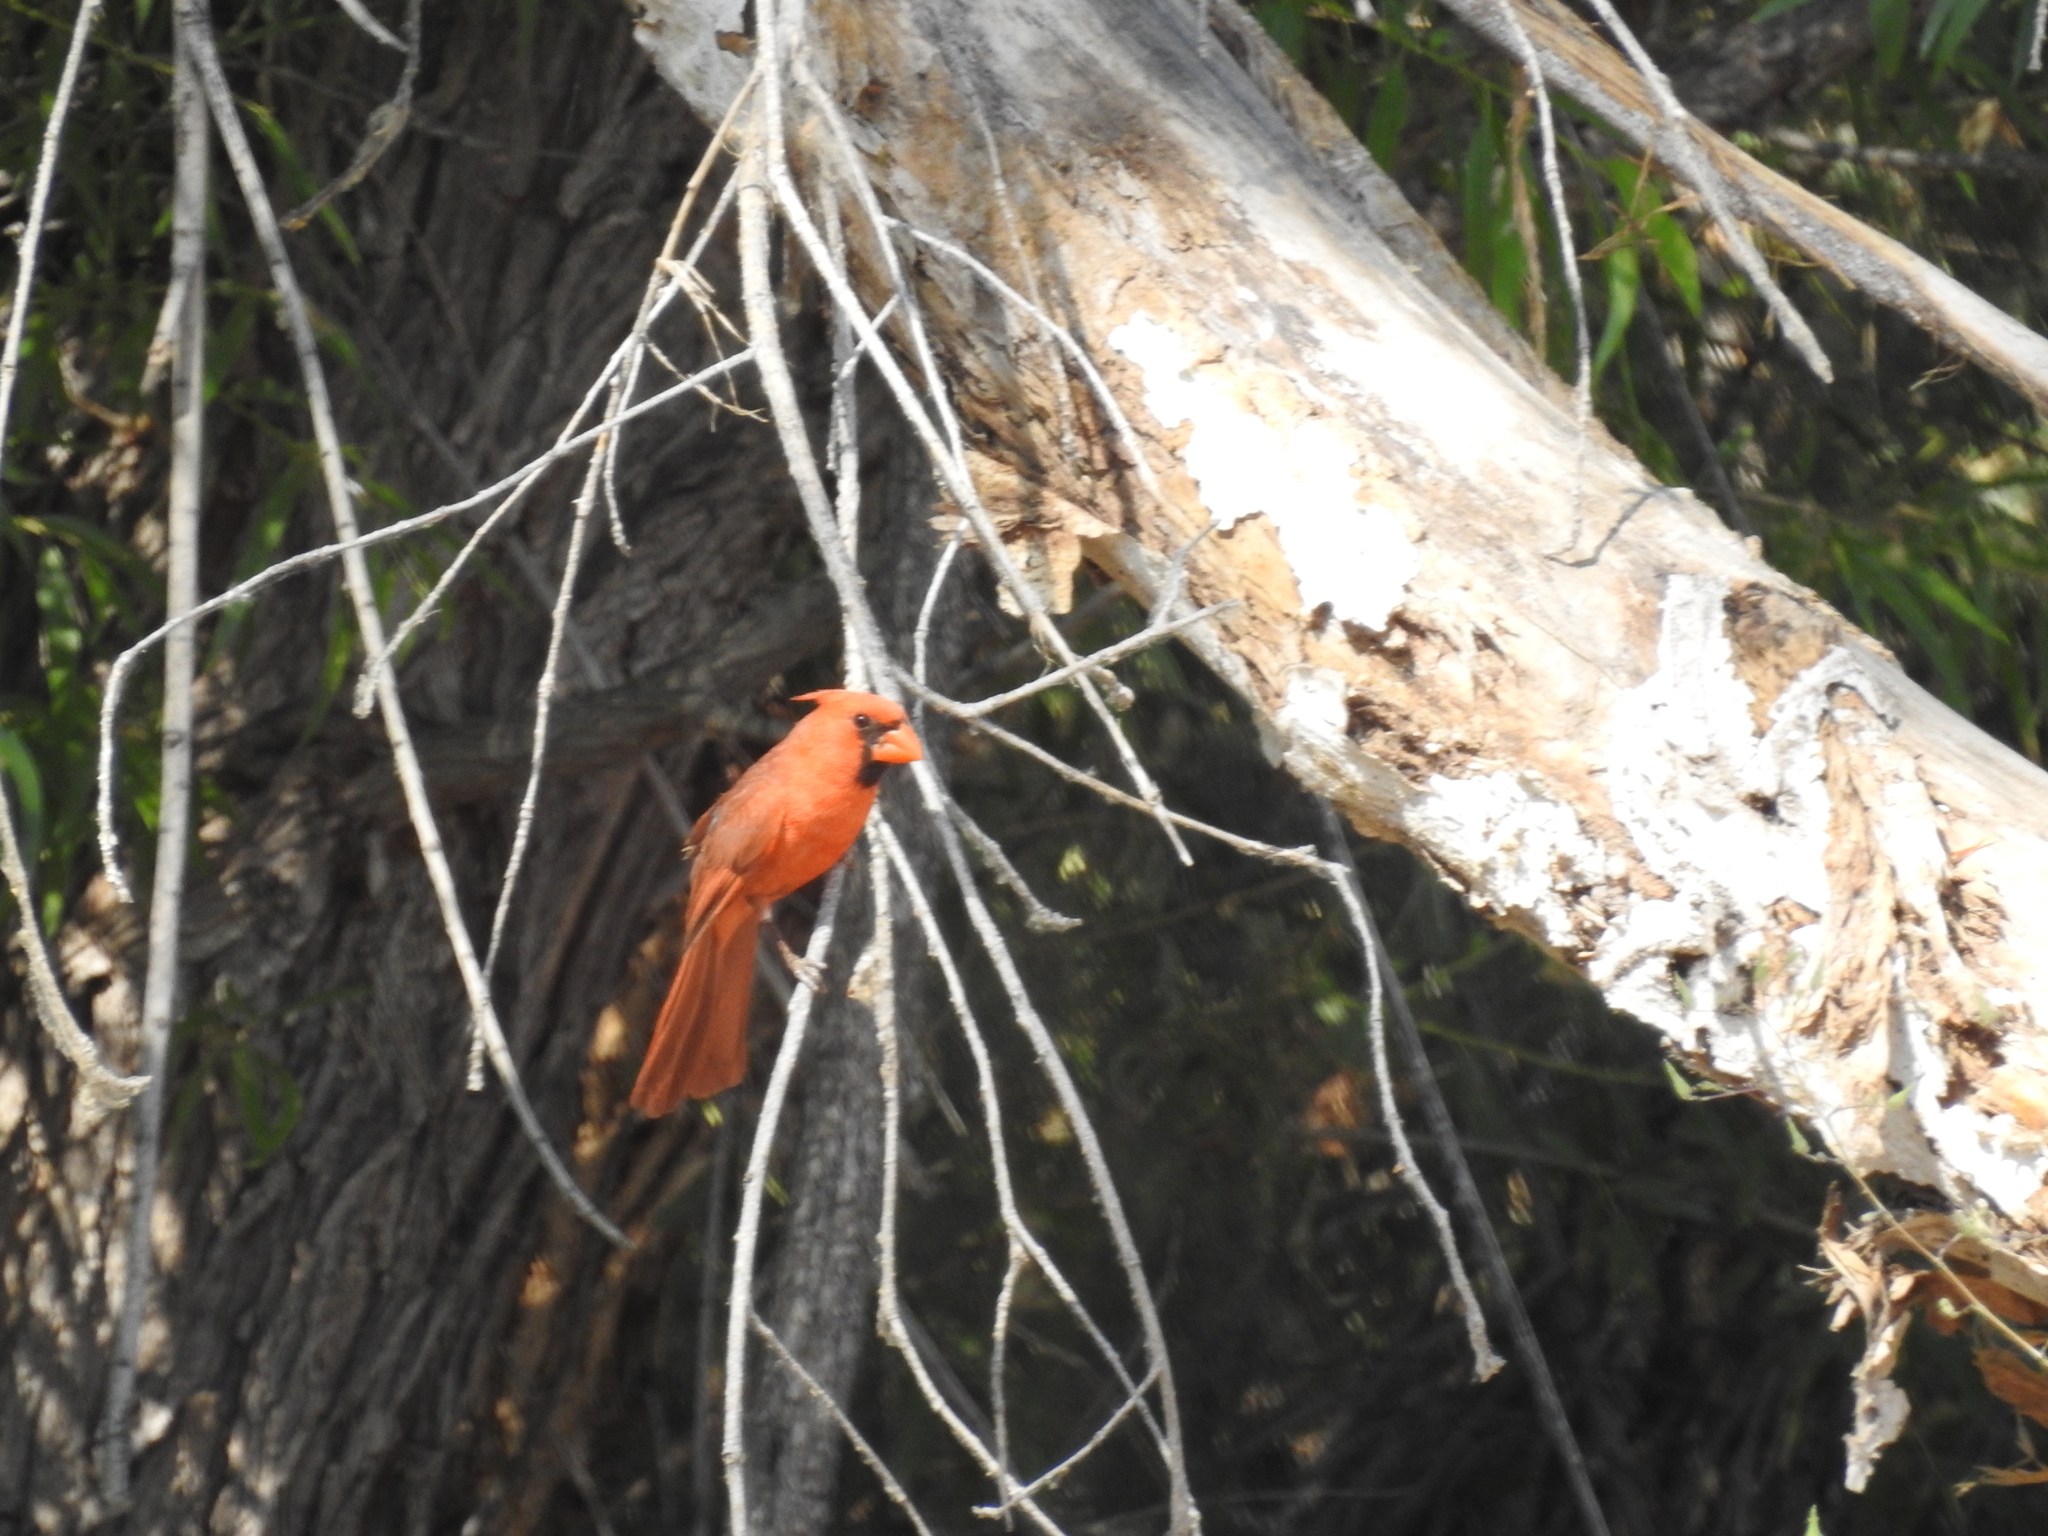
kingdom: Animalia
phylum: Chordata
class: Aves
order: Passeriformes
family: Cardinalidae
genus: Cardinalis
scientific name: Cardinalis cardinalis
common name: Northern cardinal
